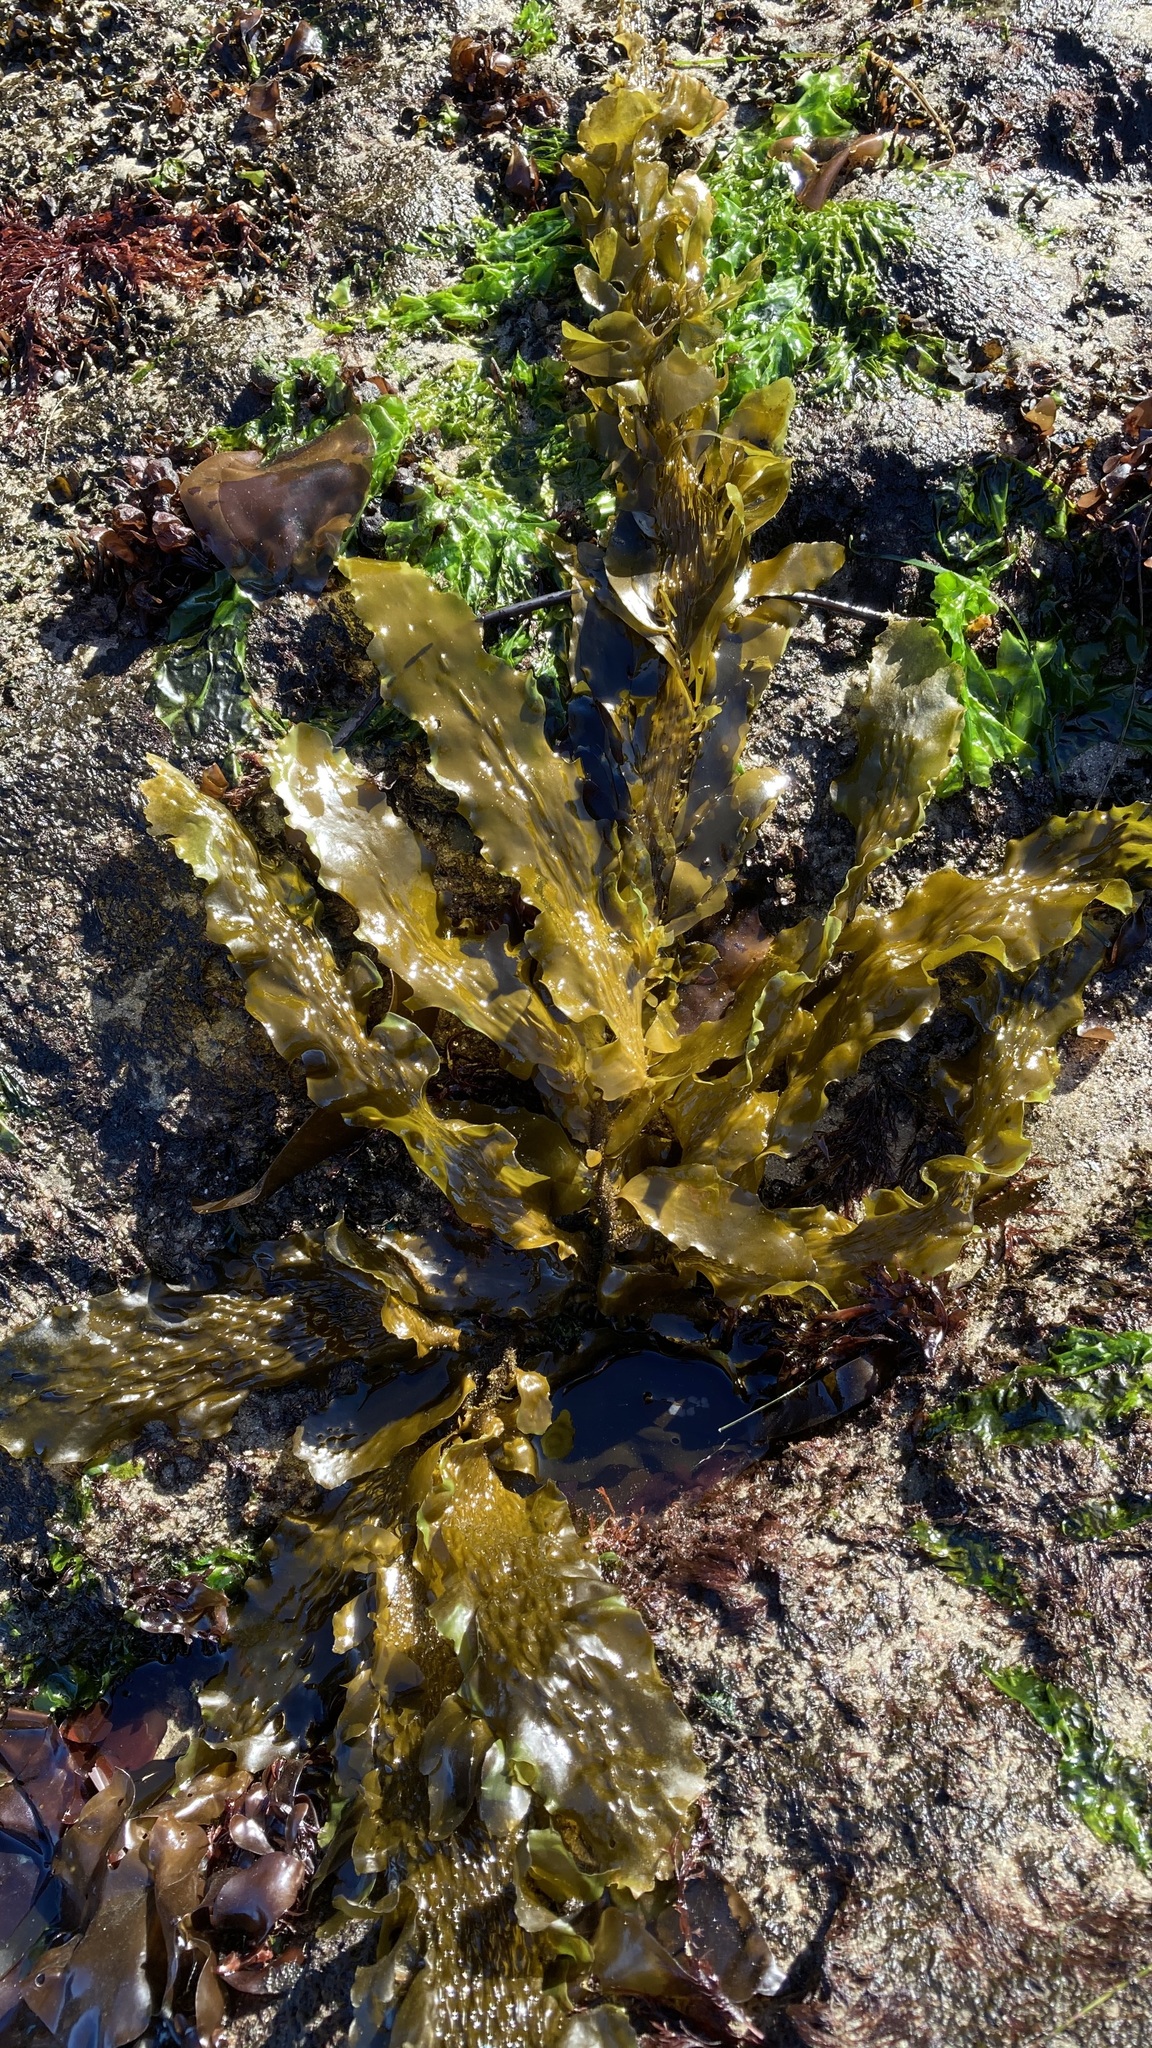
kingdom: Chromista
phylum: Ochrophyta
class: Phaeophyceae
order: Laminariales
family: Lessoniaceae
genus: Egregia
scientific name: Egregia menziesii
